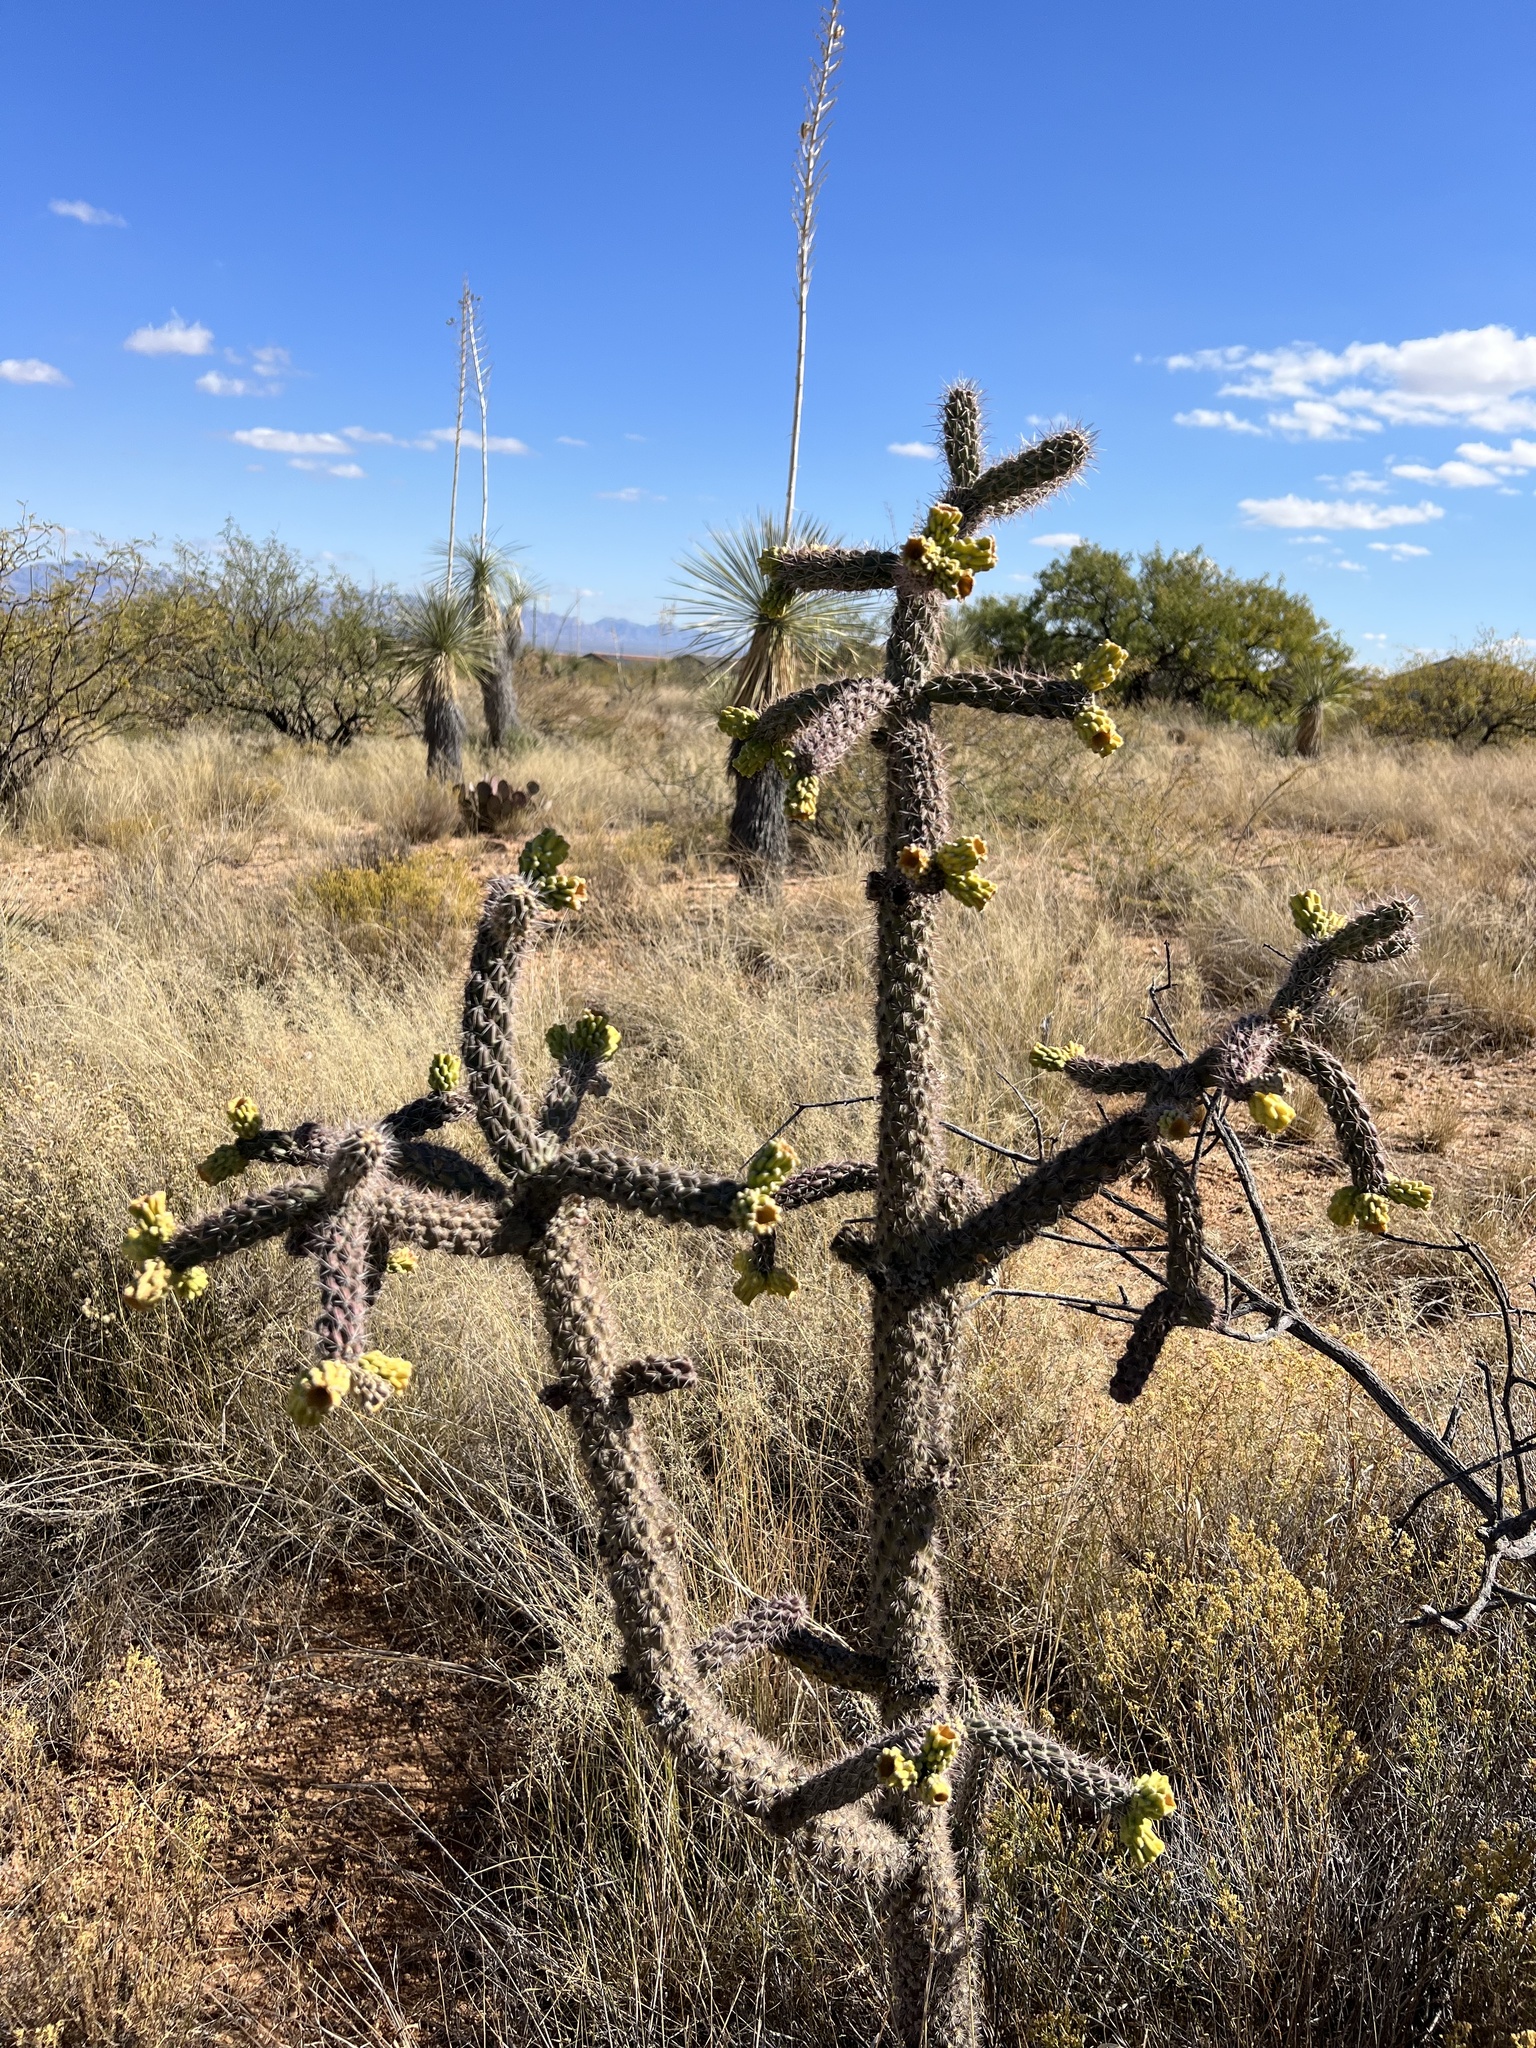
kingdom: Plantae
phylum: Tracheophyta
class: Magnoliopsida
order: Caryophyllales
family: Cactaceae
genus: Cylindropuntia
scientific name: Cylindropuntia imbricata
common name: Candelabrum cactus
